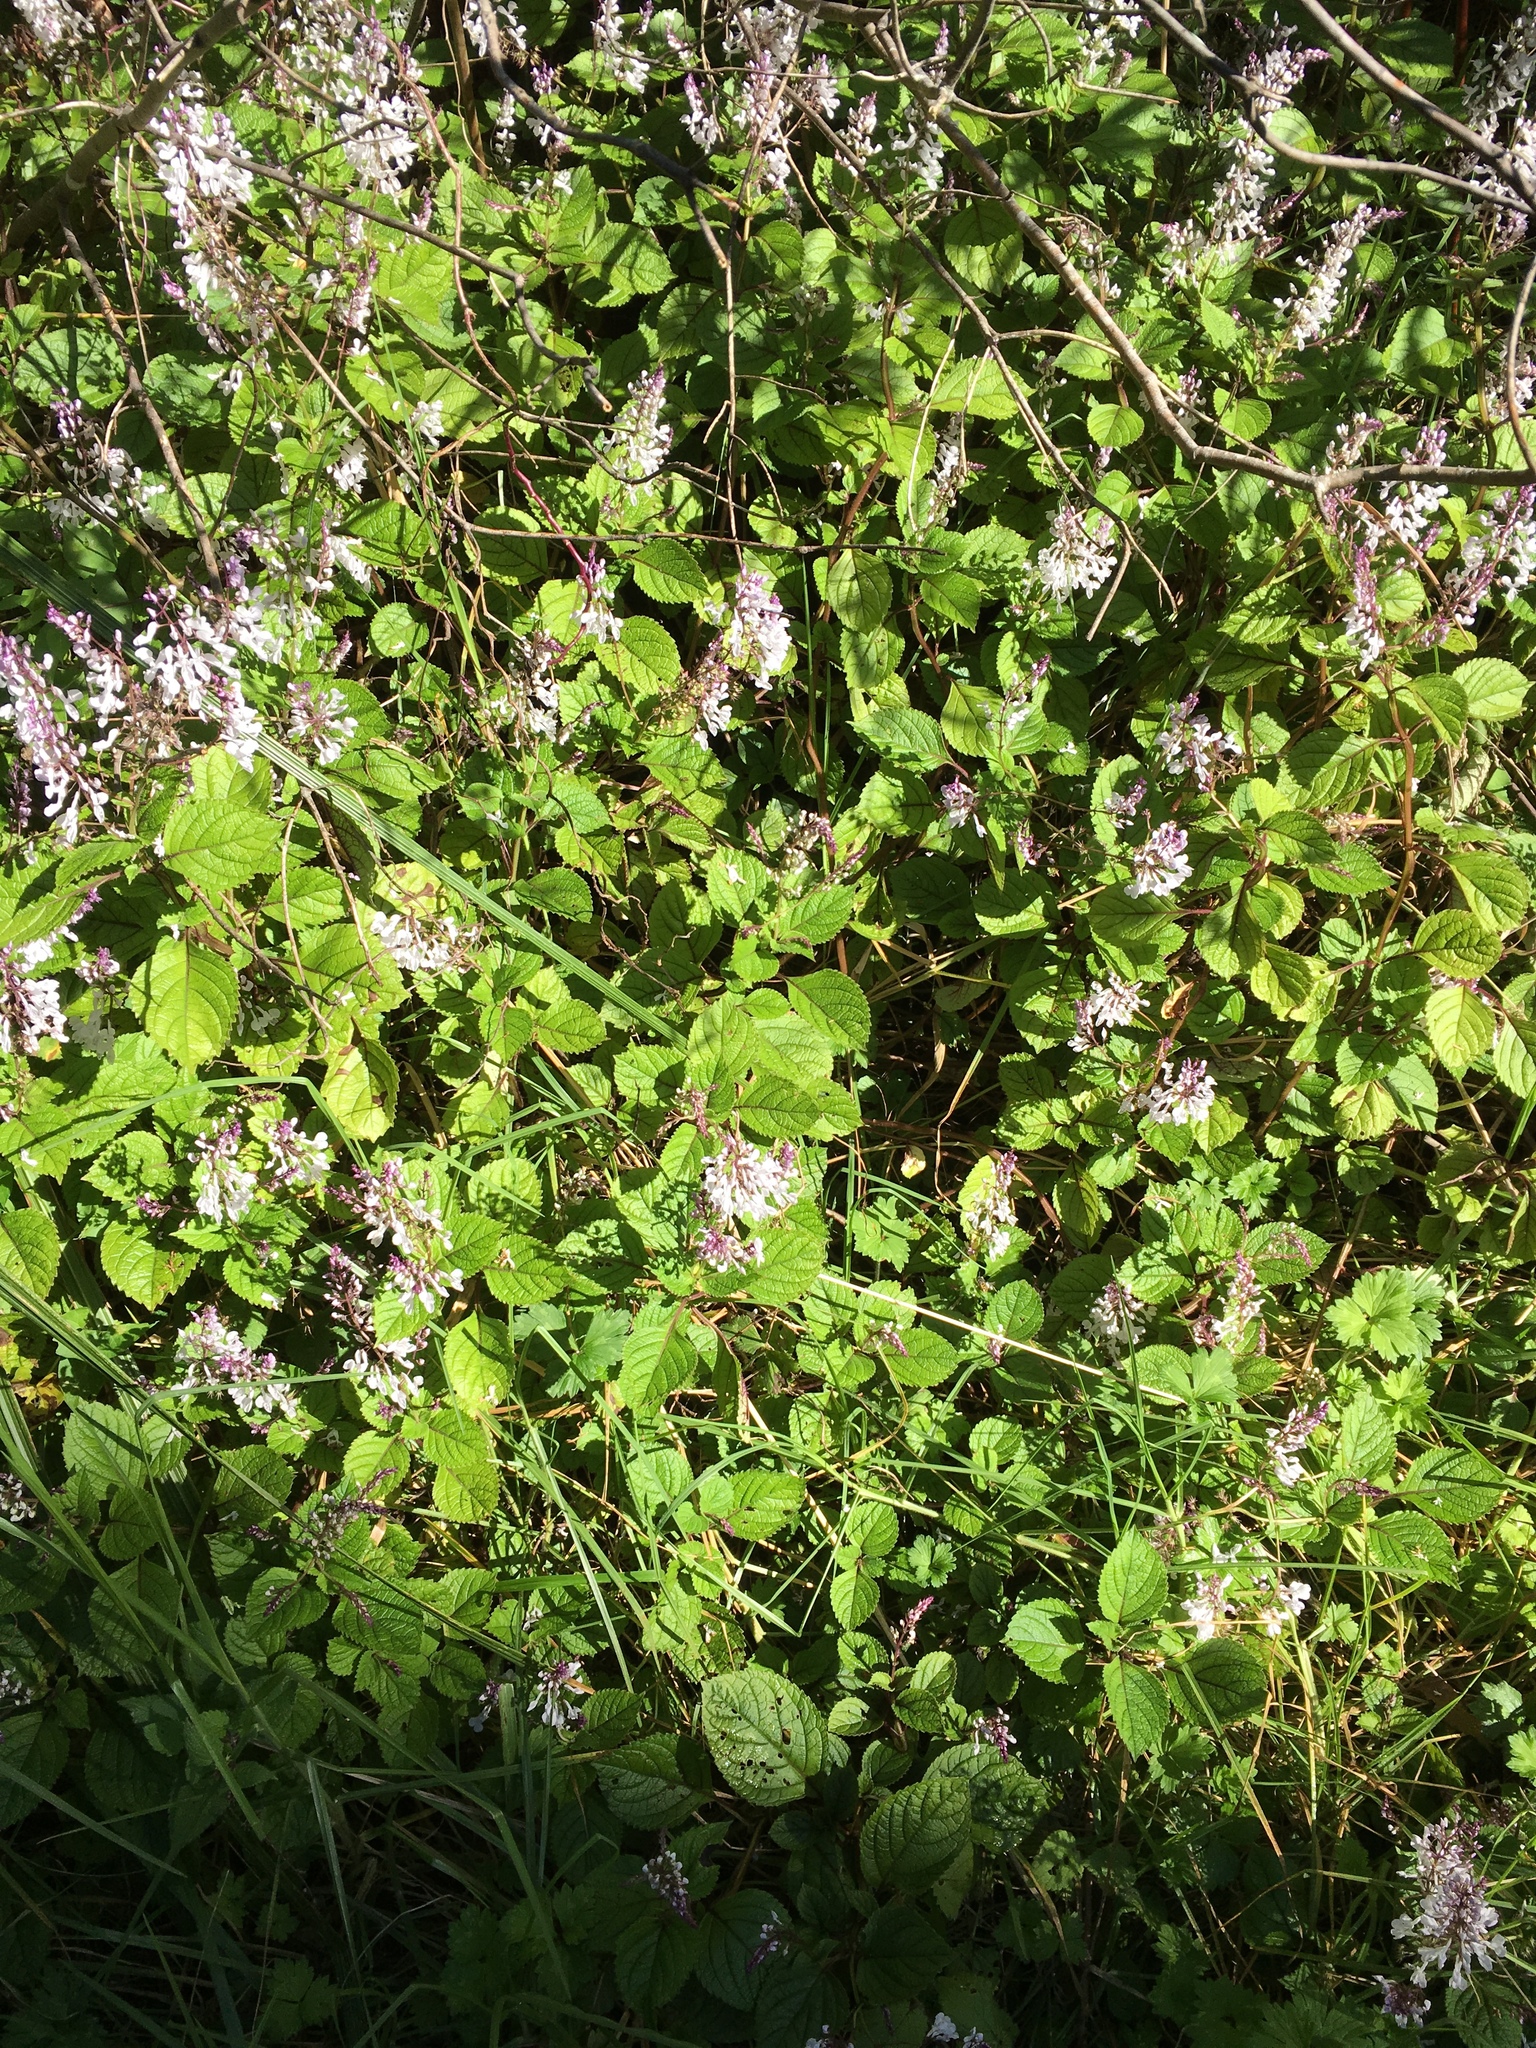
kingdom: Plantae
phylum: Tracheophyta
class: Magnoliopsida
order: Lamiales
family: Lamiaceae
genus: Plectranthus
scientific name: Plectranthus ciliatus
